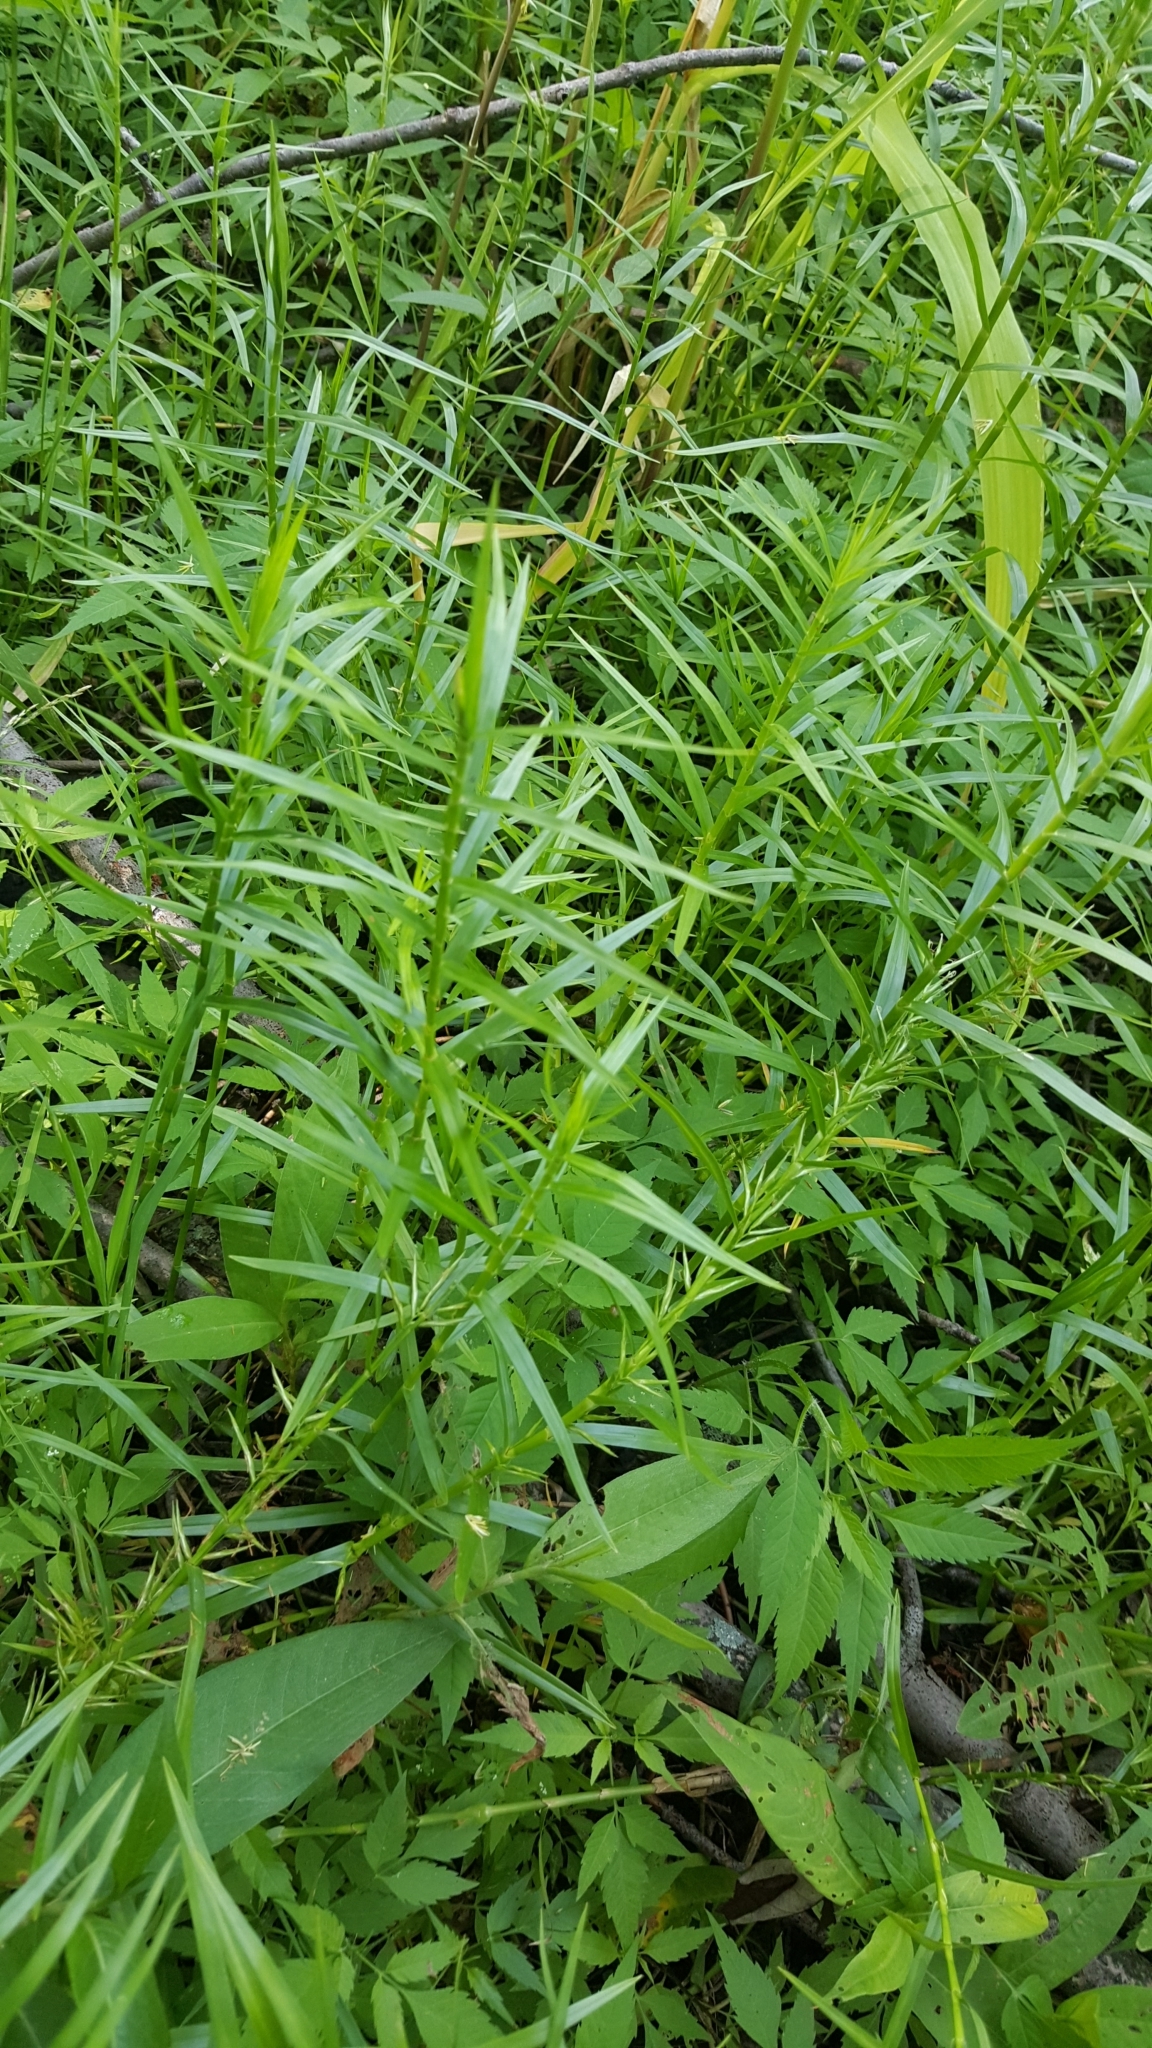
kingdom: Plantae
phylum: Tracheophyta
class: Liliopsida
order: Poales
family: Cyperaceae
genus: Dulichium
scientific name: Dulichium arundinaceum
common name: Three-way sedge
